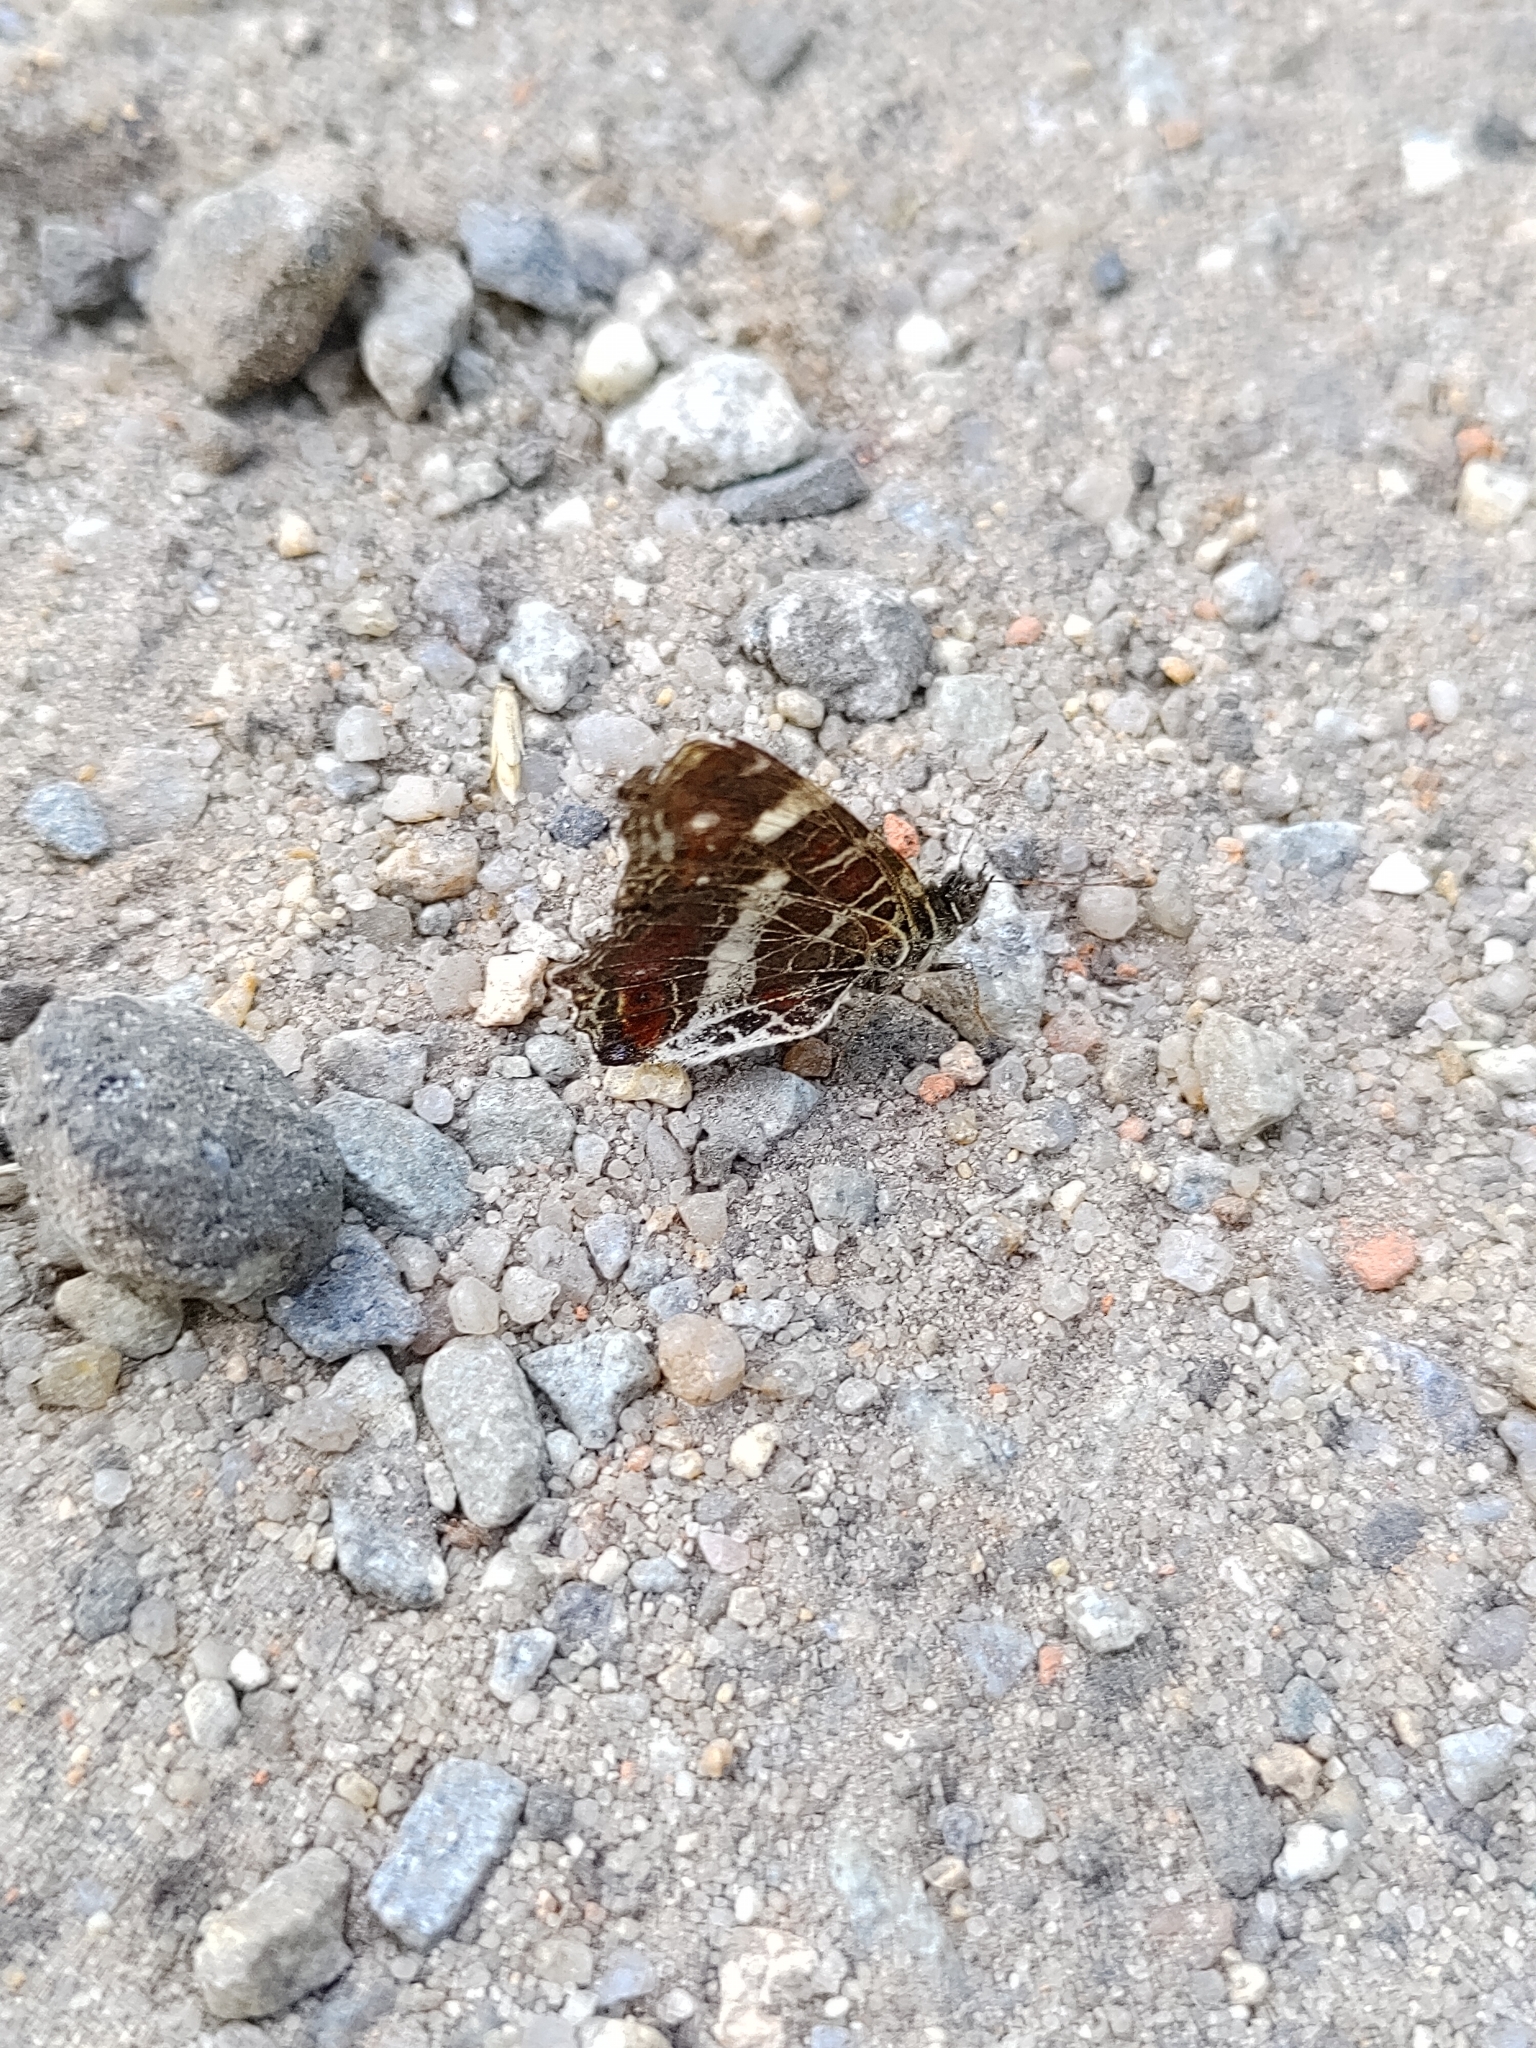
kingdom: Animalia
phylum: Arthropoda
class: Insecta
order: Lepidoptera
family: Nymphalidae
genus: Araschnia
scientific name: Araschnia levana
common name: Map butterfly
